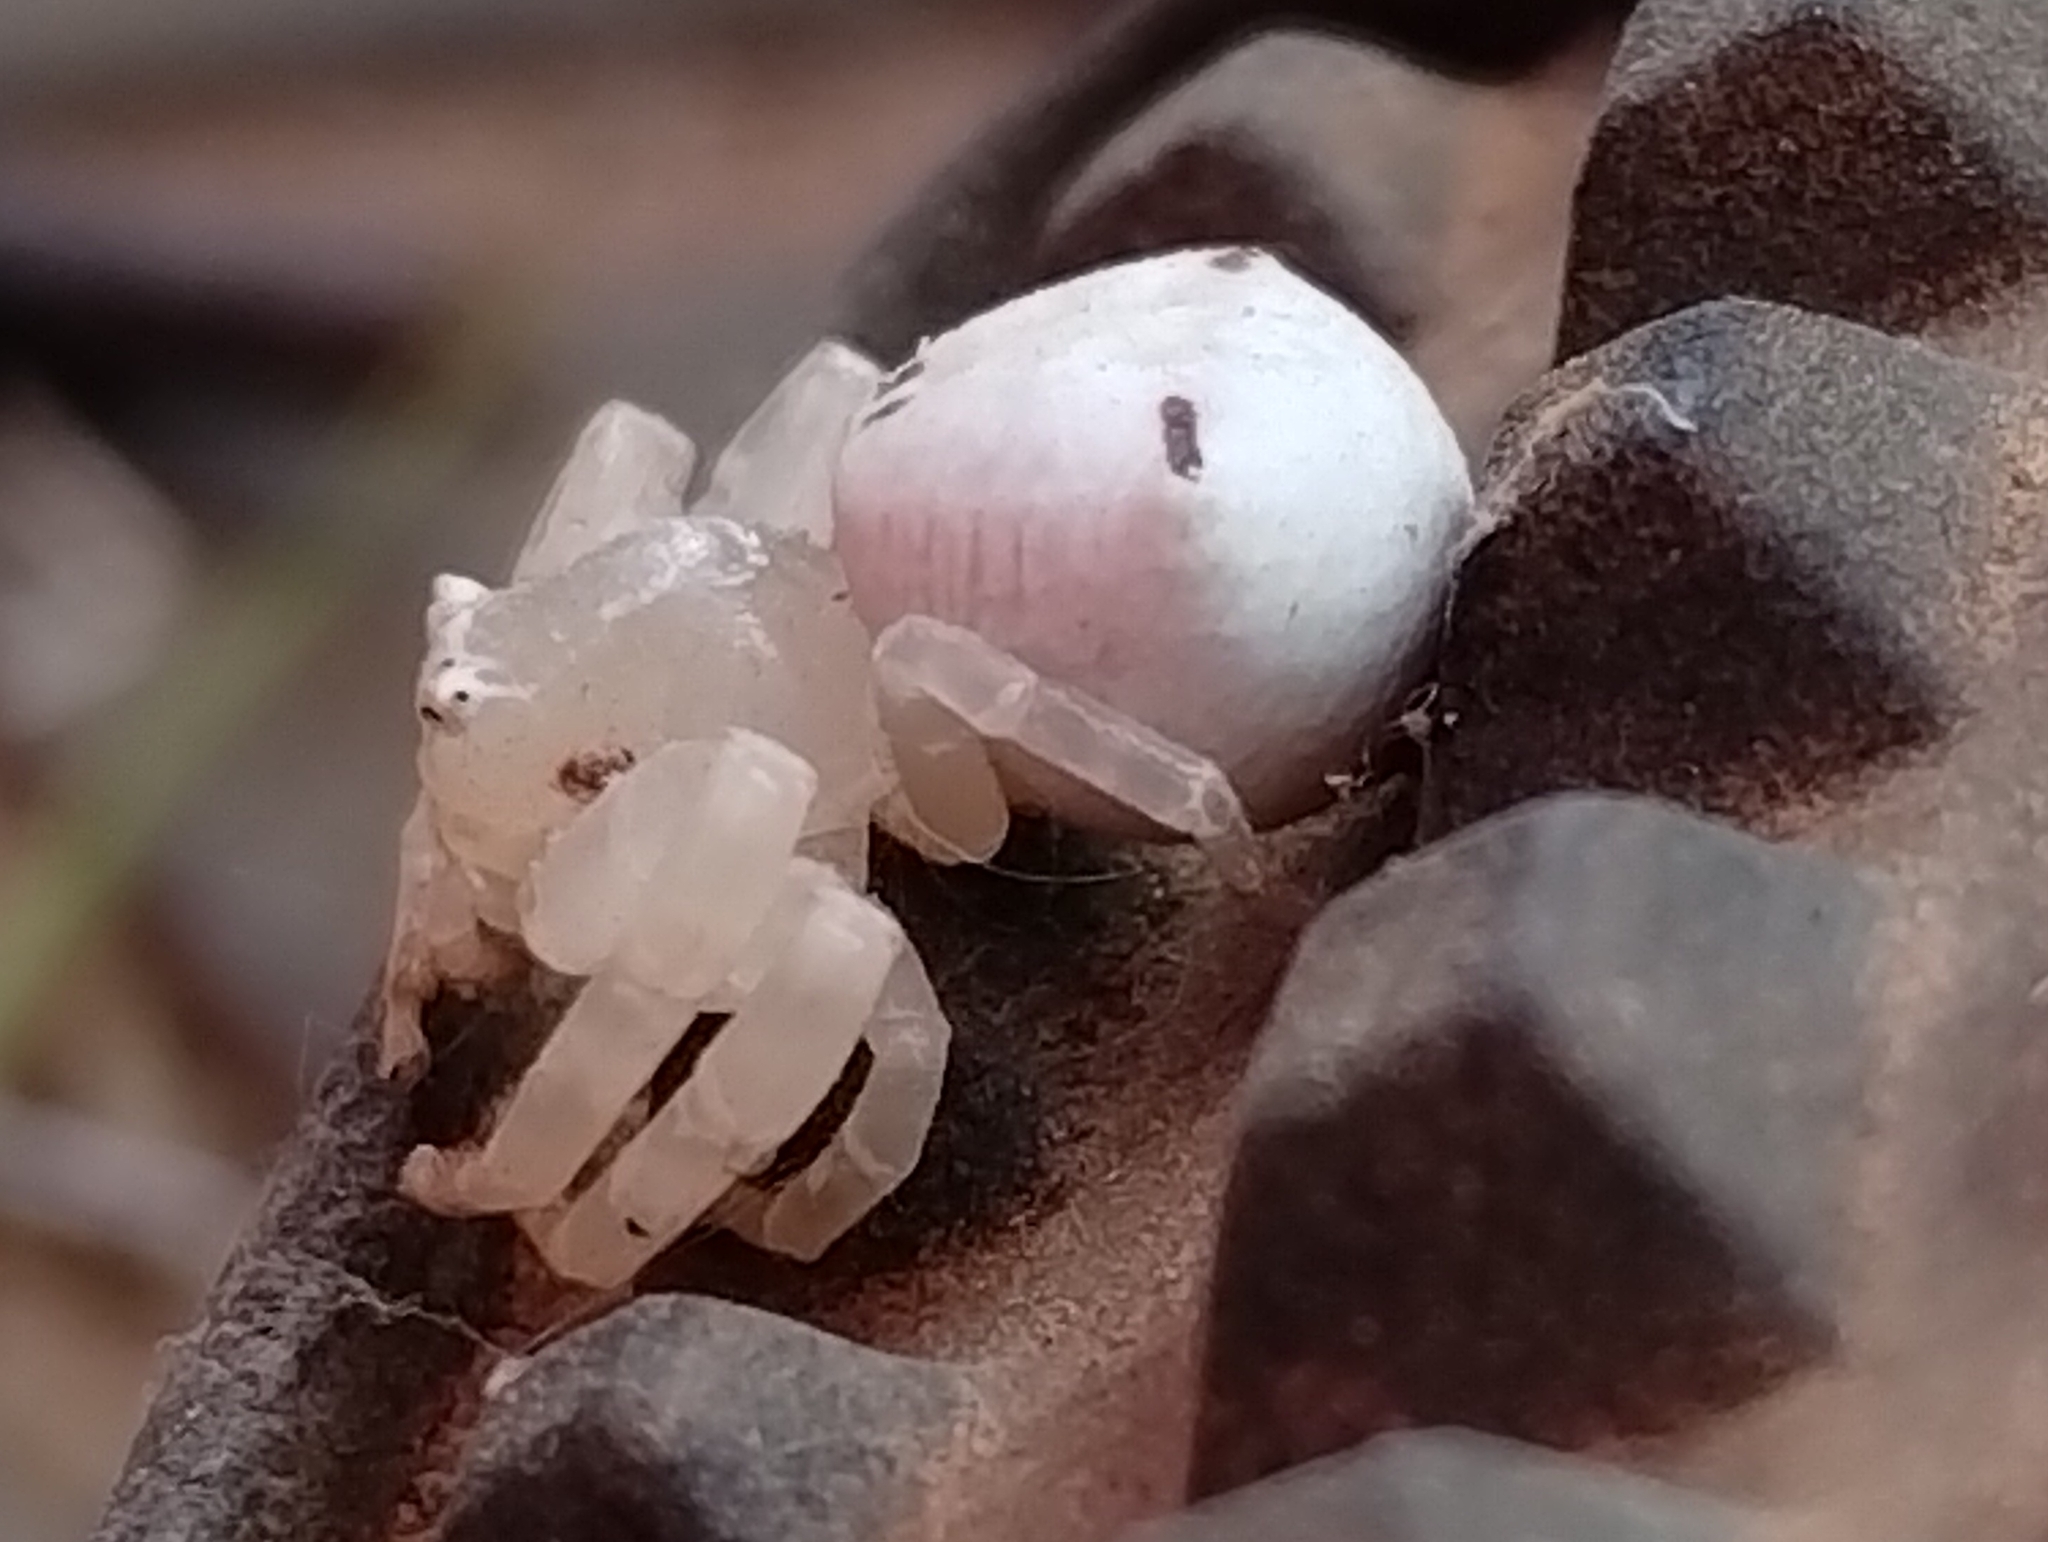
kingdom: Animalia
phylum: Arthropoda
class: Arachnida
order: Araneae
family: Thomisidae
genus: Thomisus
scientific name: Thomisus spectabilis
